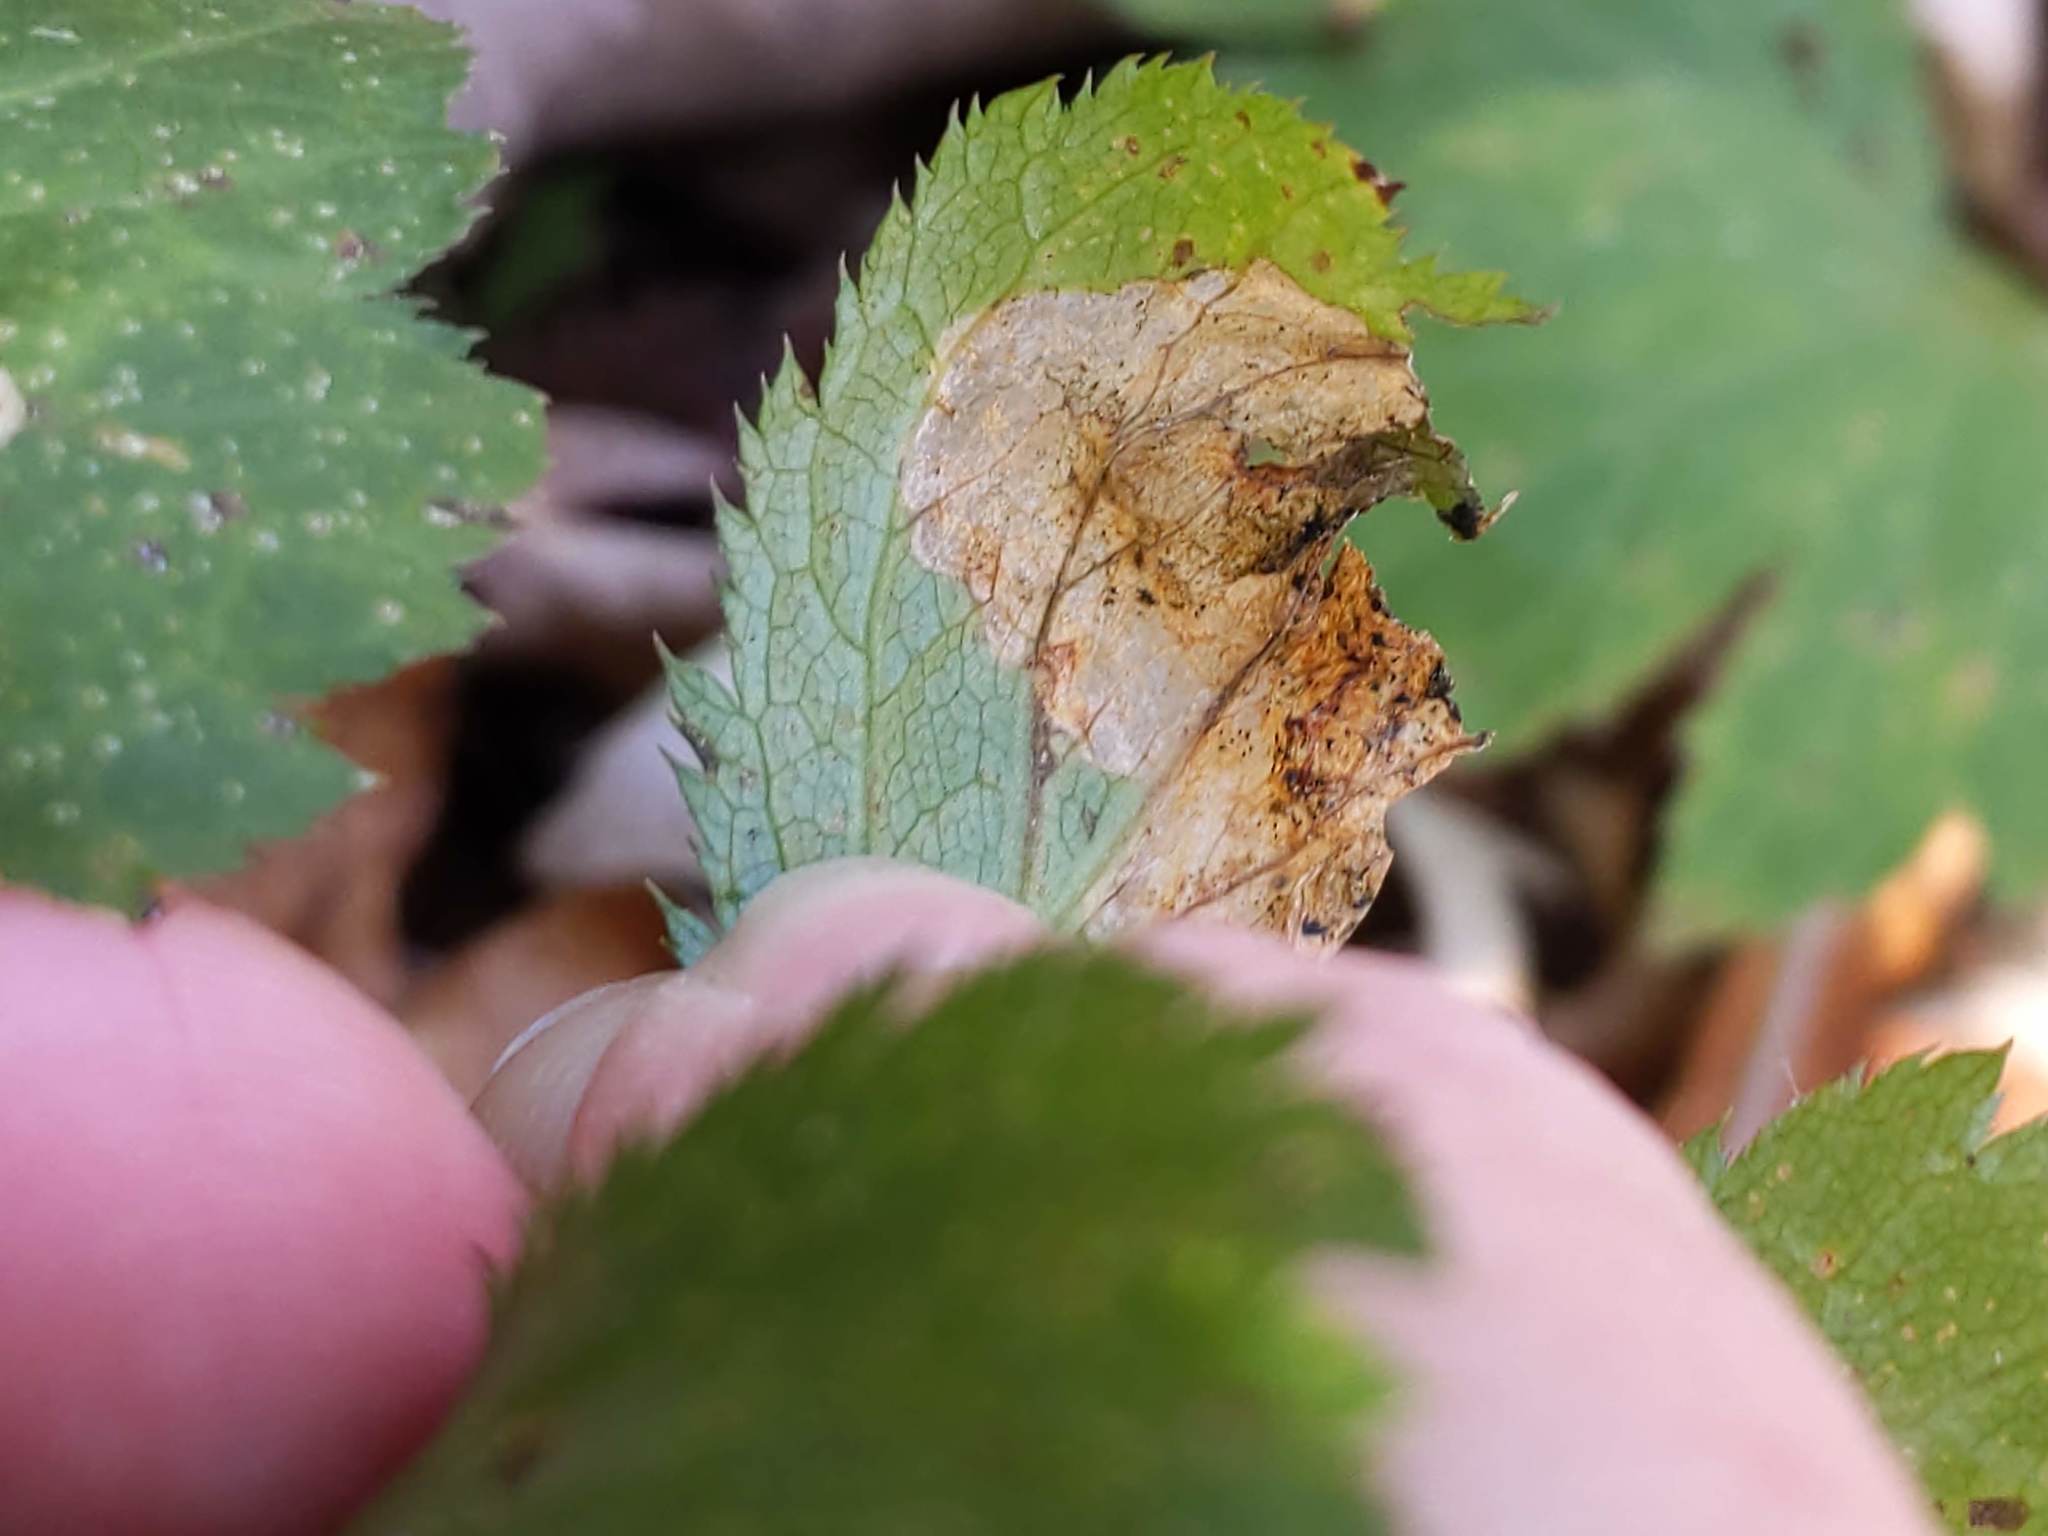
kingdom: Animalia
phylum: Arthropoda
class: Insecta
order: Hymenoptera
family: Tenthredinidae
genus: Metallus
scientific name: Metallus lanceolatus
